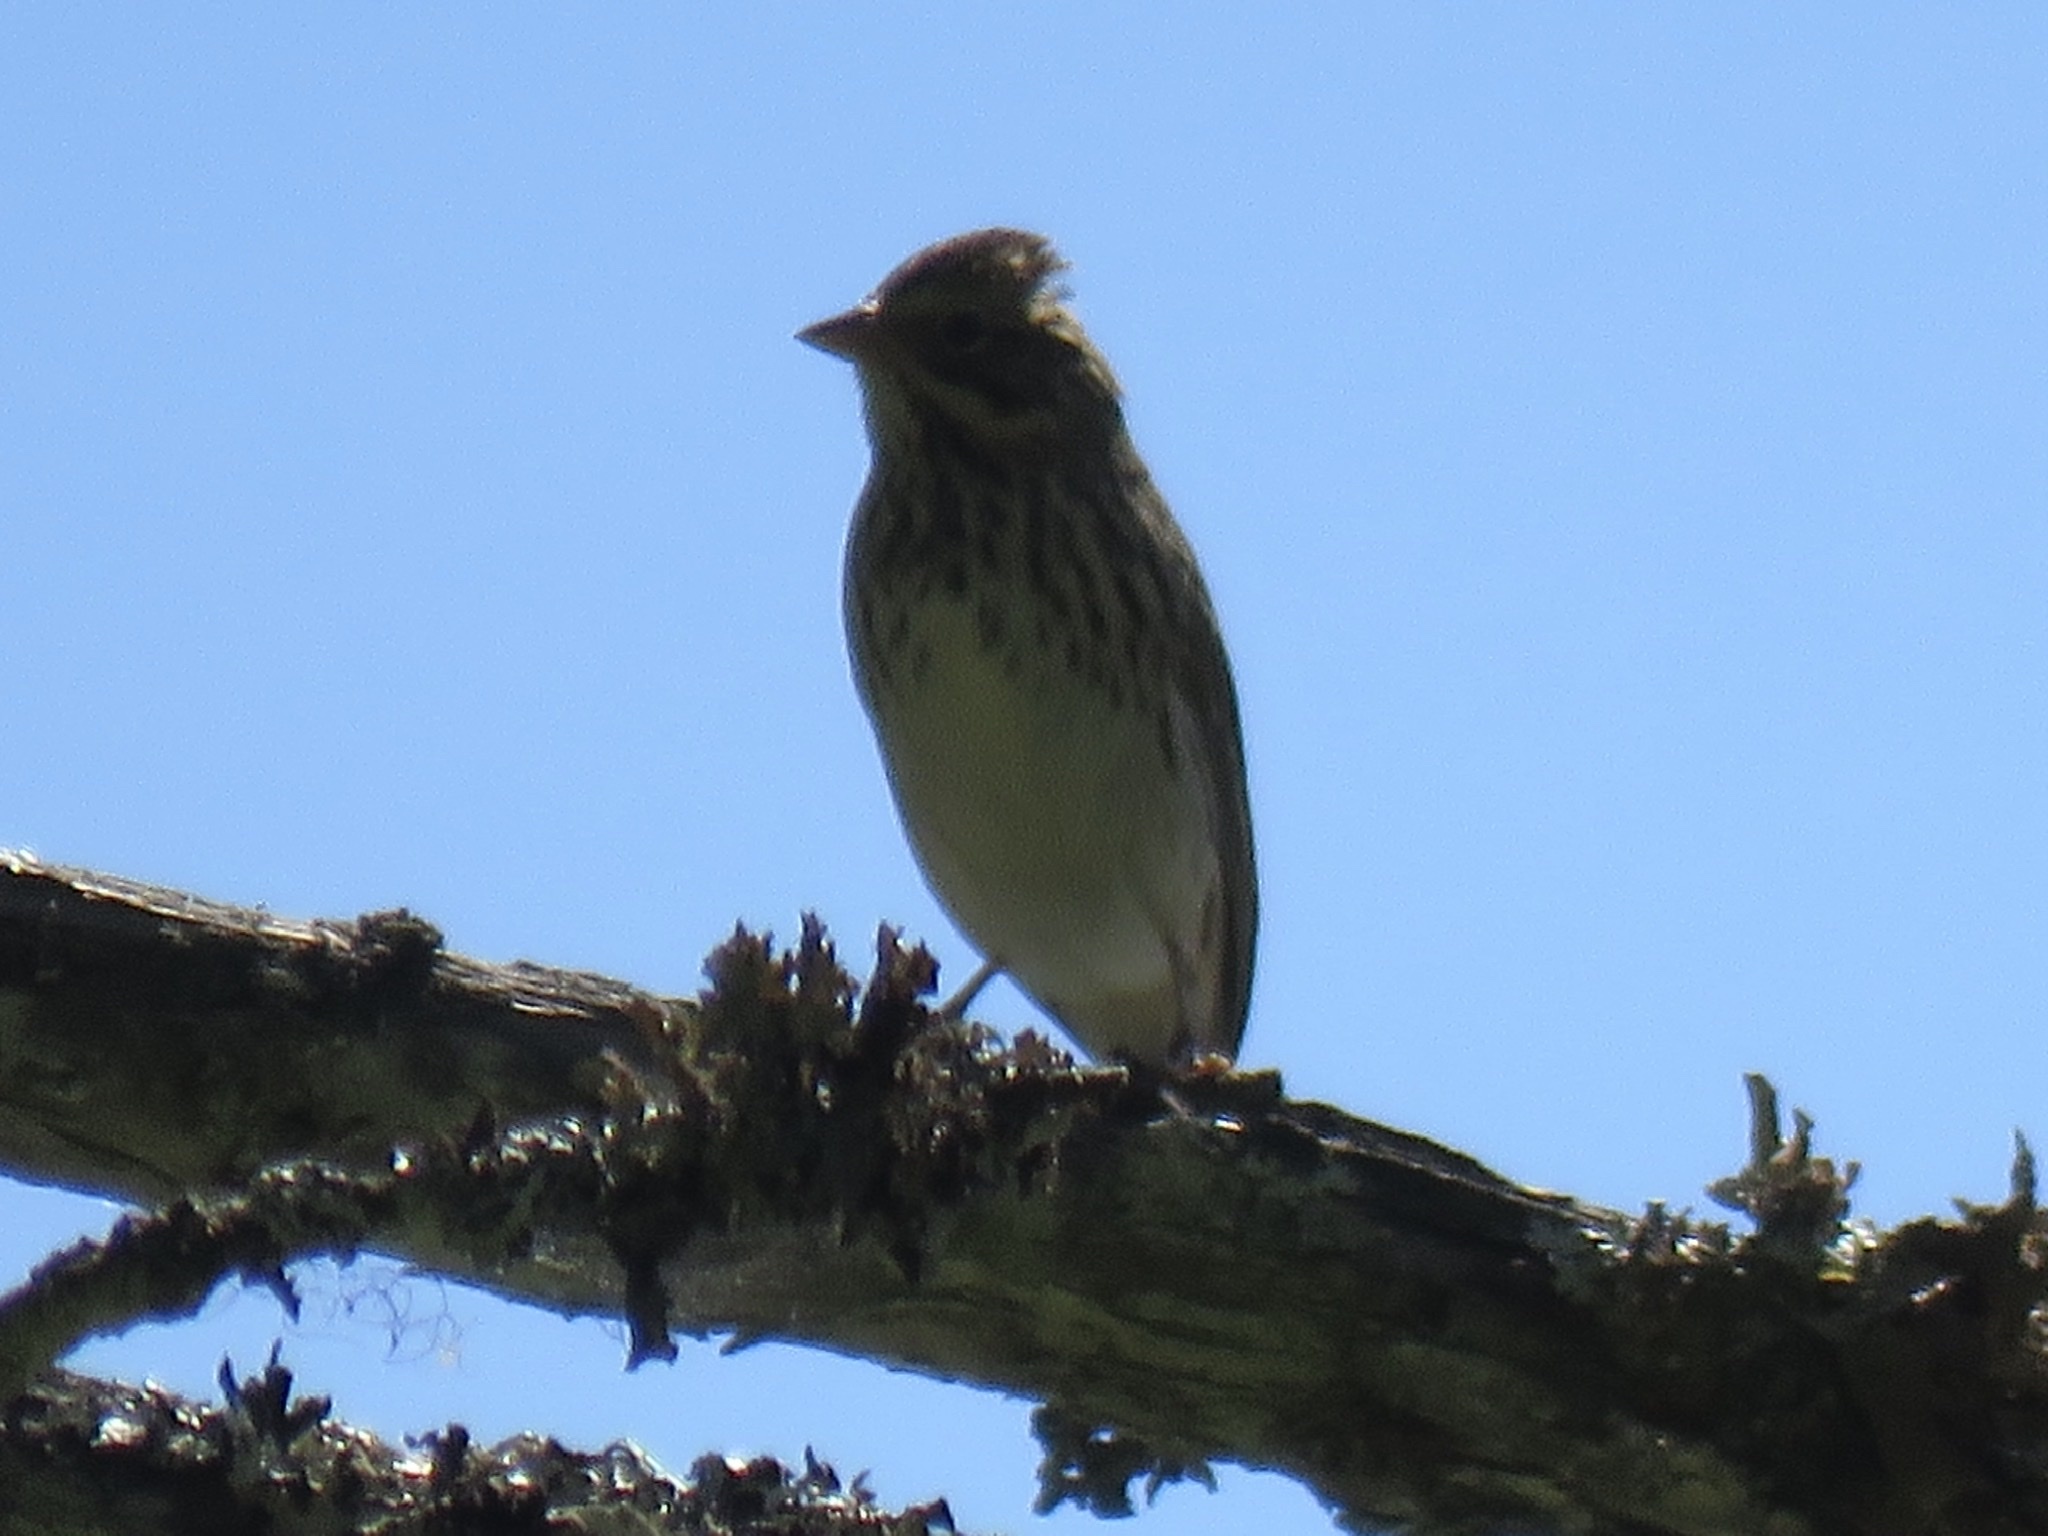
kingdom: Animalia
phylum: Chordata
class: Aves
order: Passeriformes
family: Passerellidae
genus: Passerculus
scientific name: Passerculus sandwichensis
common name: Savannah sparrow
